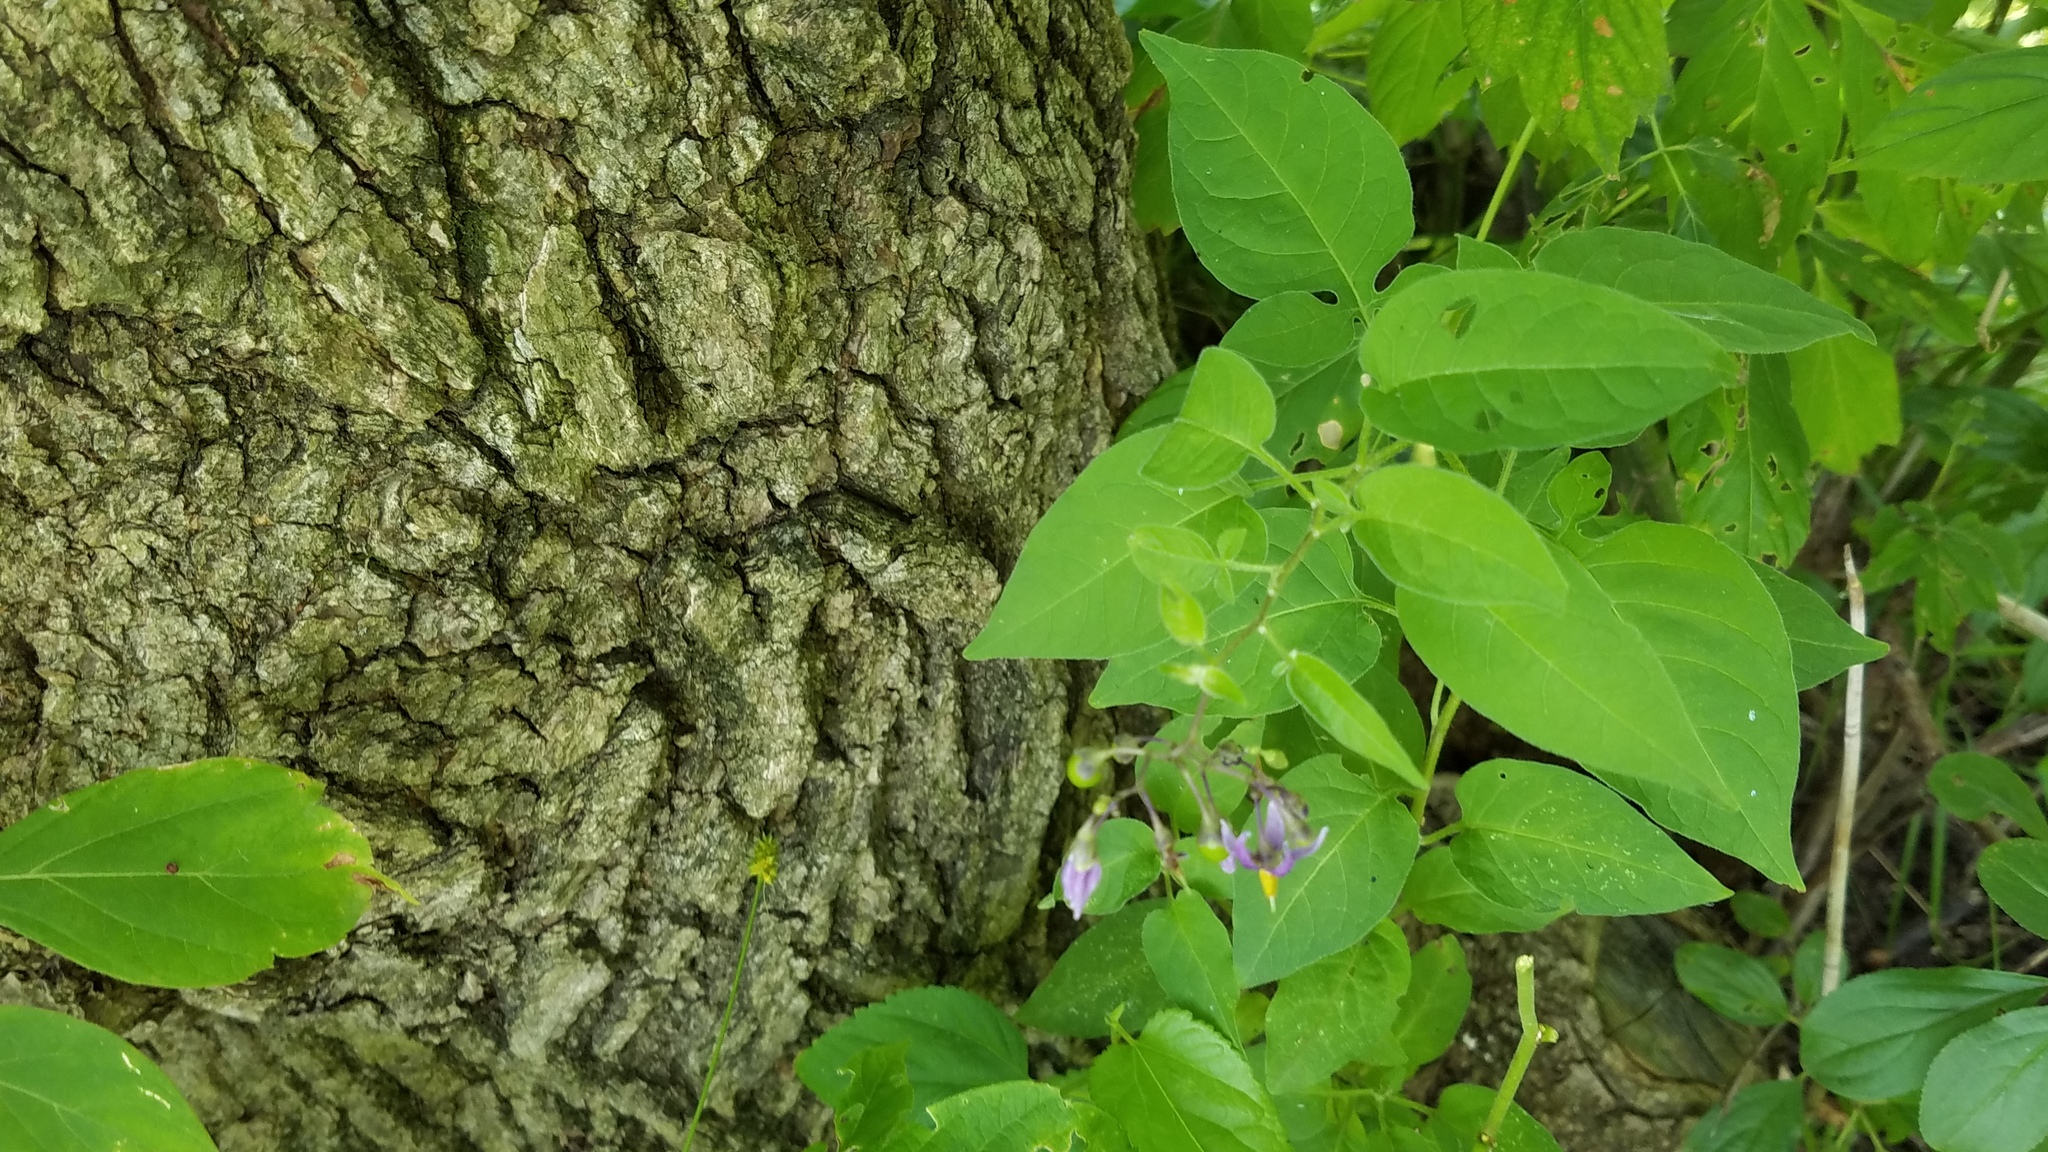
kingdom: Plantae
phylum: Tracheophyta
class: Magnoliopsida
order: Solanales
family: Solanaceae
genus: Solanum
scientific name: Solanum dulcamara
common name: Climbing nightshade
